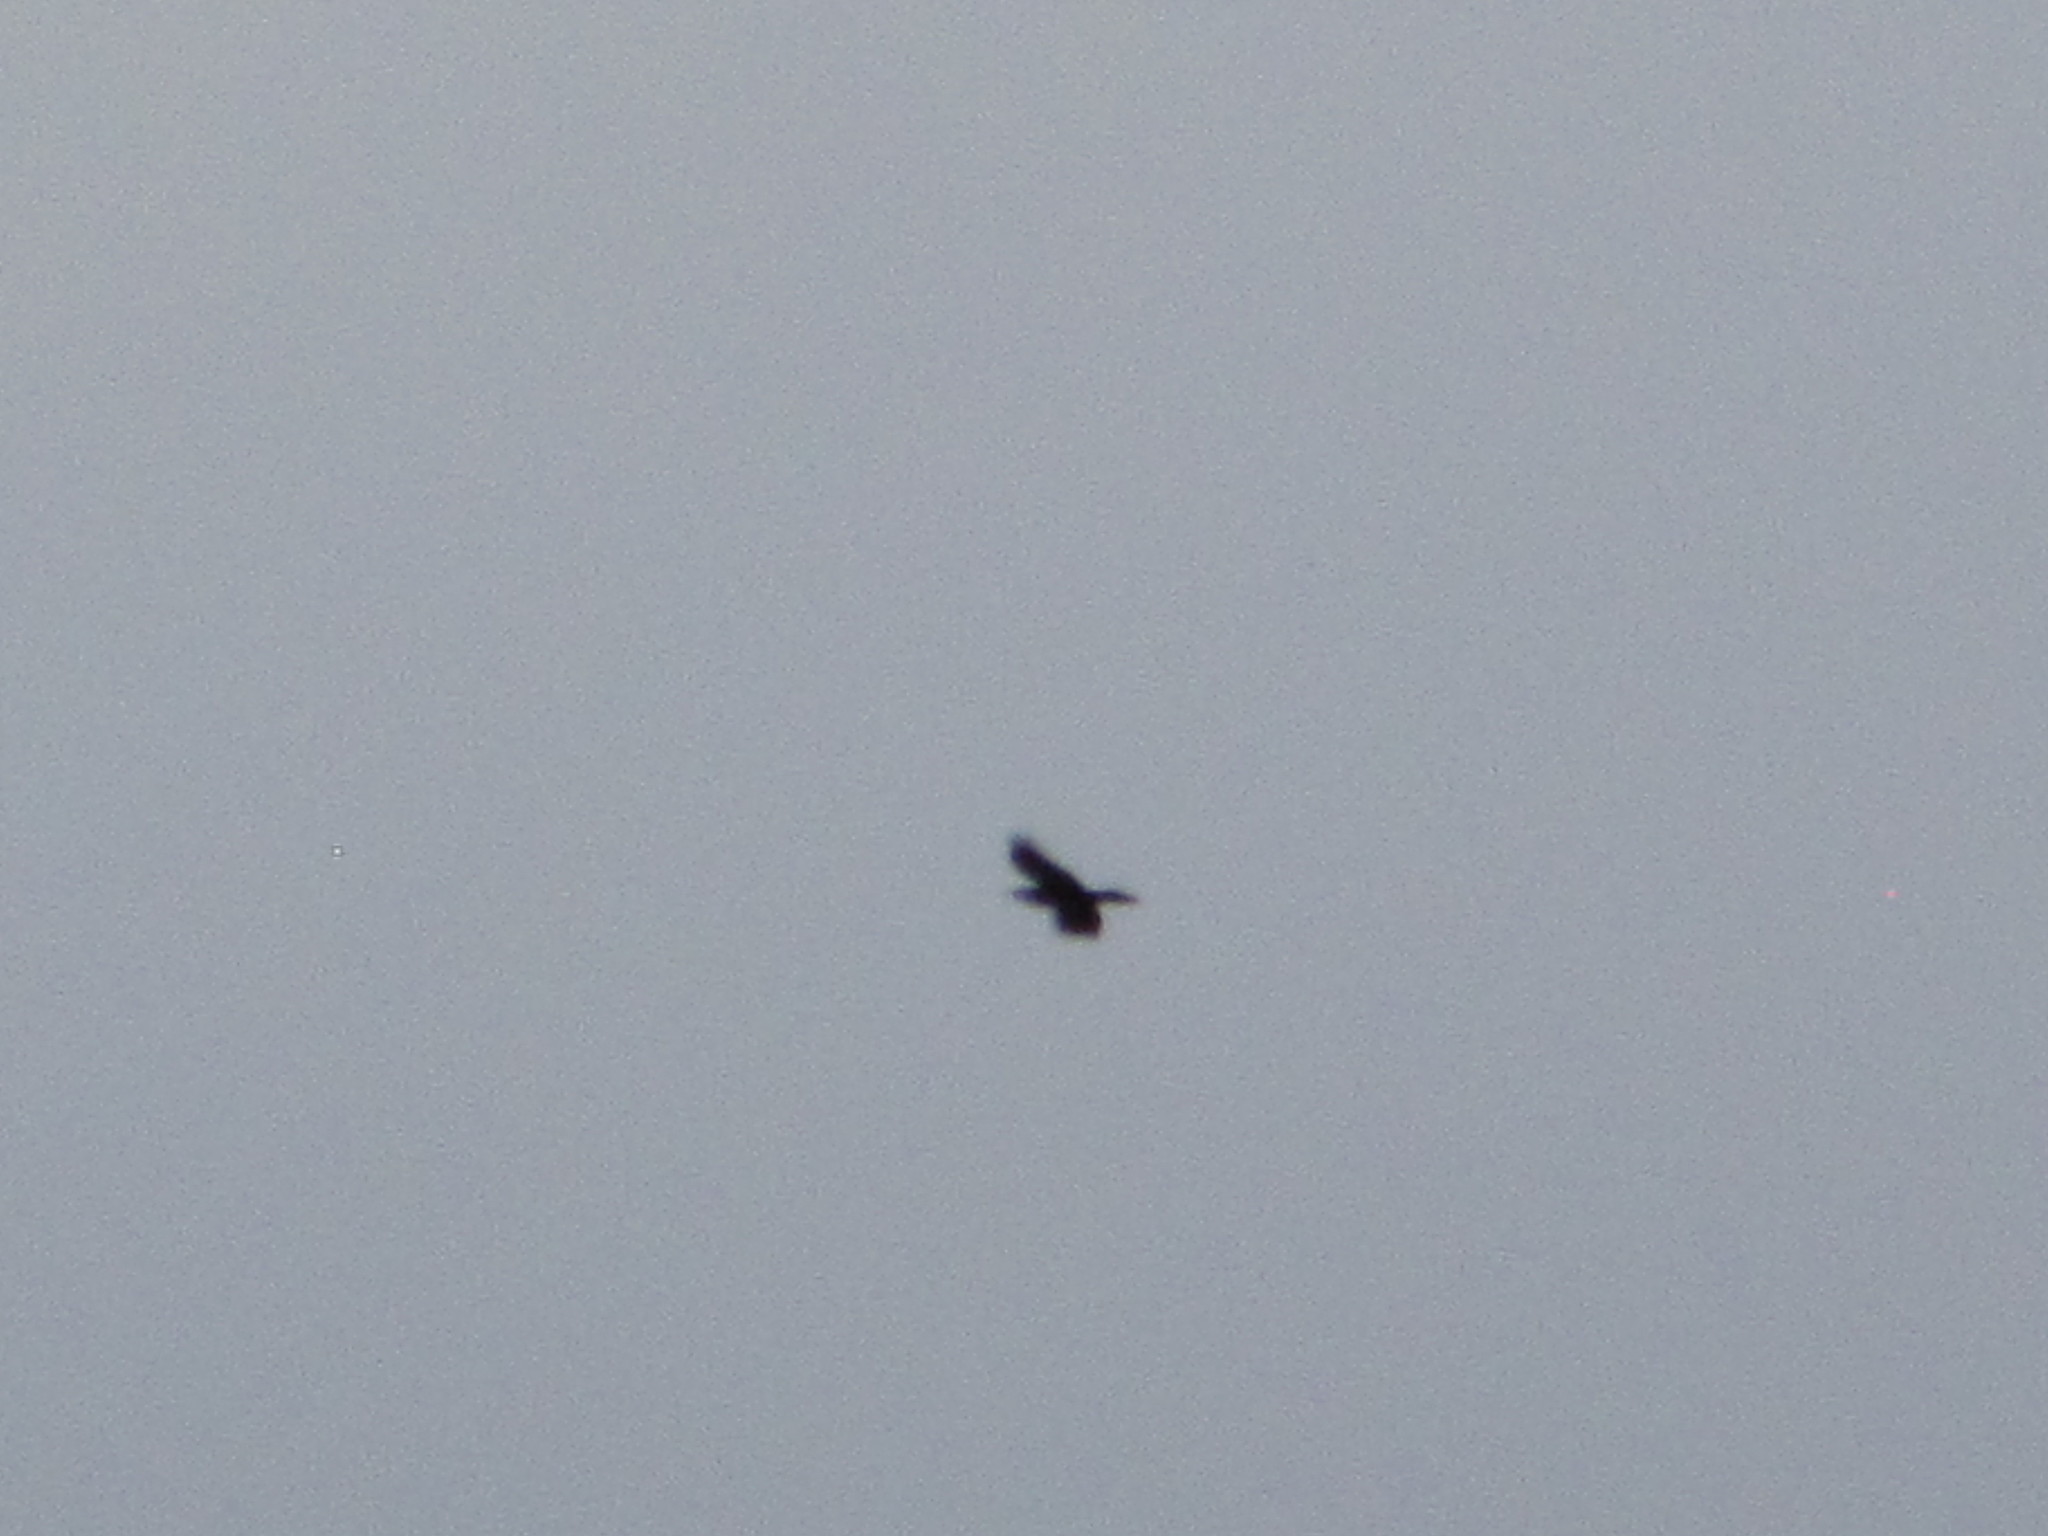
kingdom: Animalia
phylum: Chordata
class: Aves
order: Passeriformes
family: Corvidae
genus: Corvus
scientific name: Corvus corax
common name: Common raven
